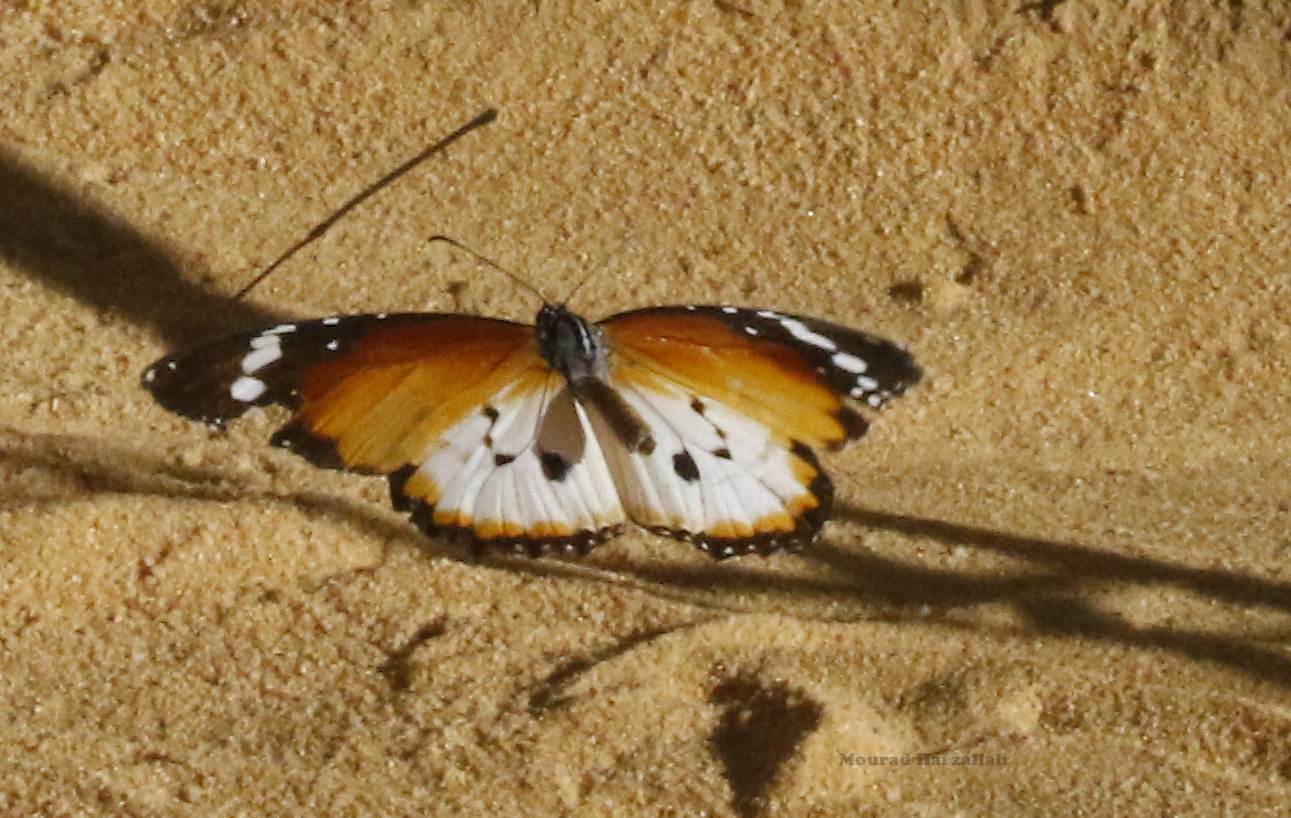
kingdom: Animalia
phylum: Arthropoda
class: Insecta
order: Lepidoptera
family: Nymphalidae
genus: Danaus
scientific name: Danaus chrysippus
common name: Plain tiger
